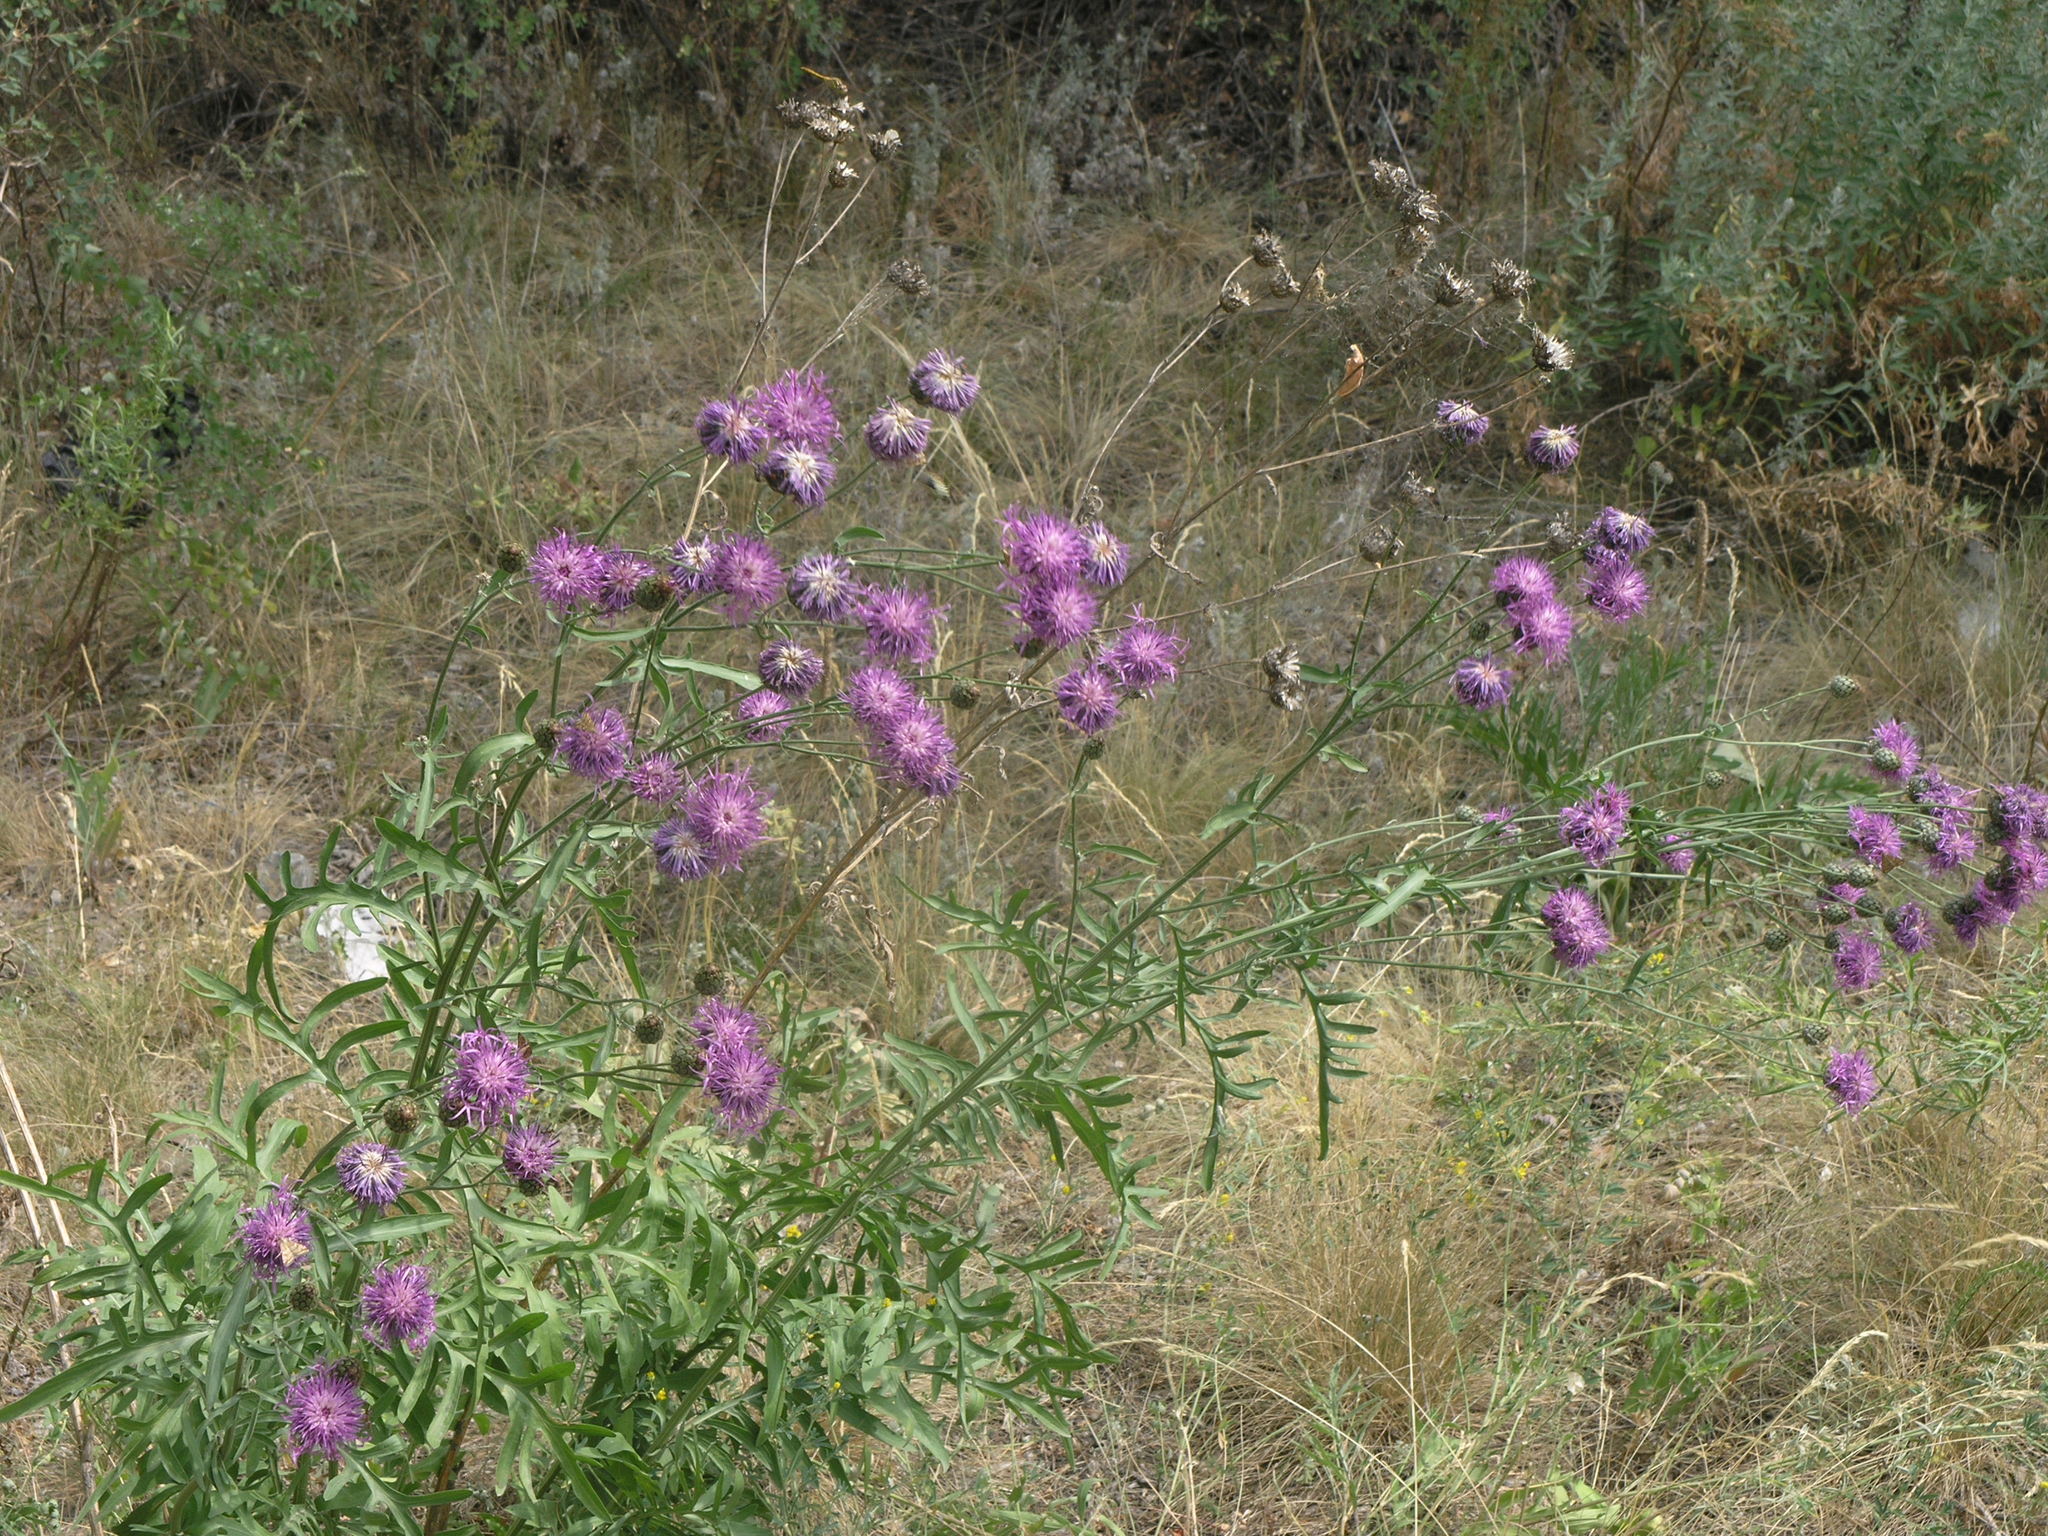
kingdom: Plantae
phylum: Tracheophyta
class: Magnoliopsida
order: Asterales
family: Asteraceae
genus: Centaurea
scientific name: Centaurea scabiosa
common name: Greater knapweed
